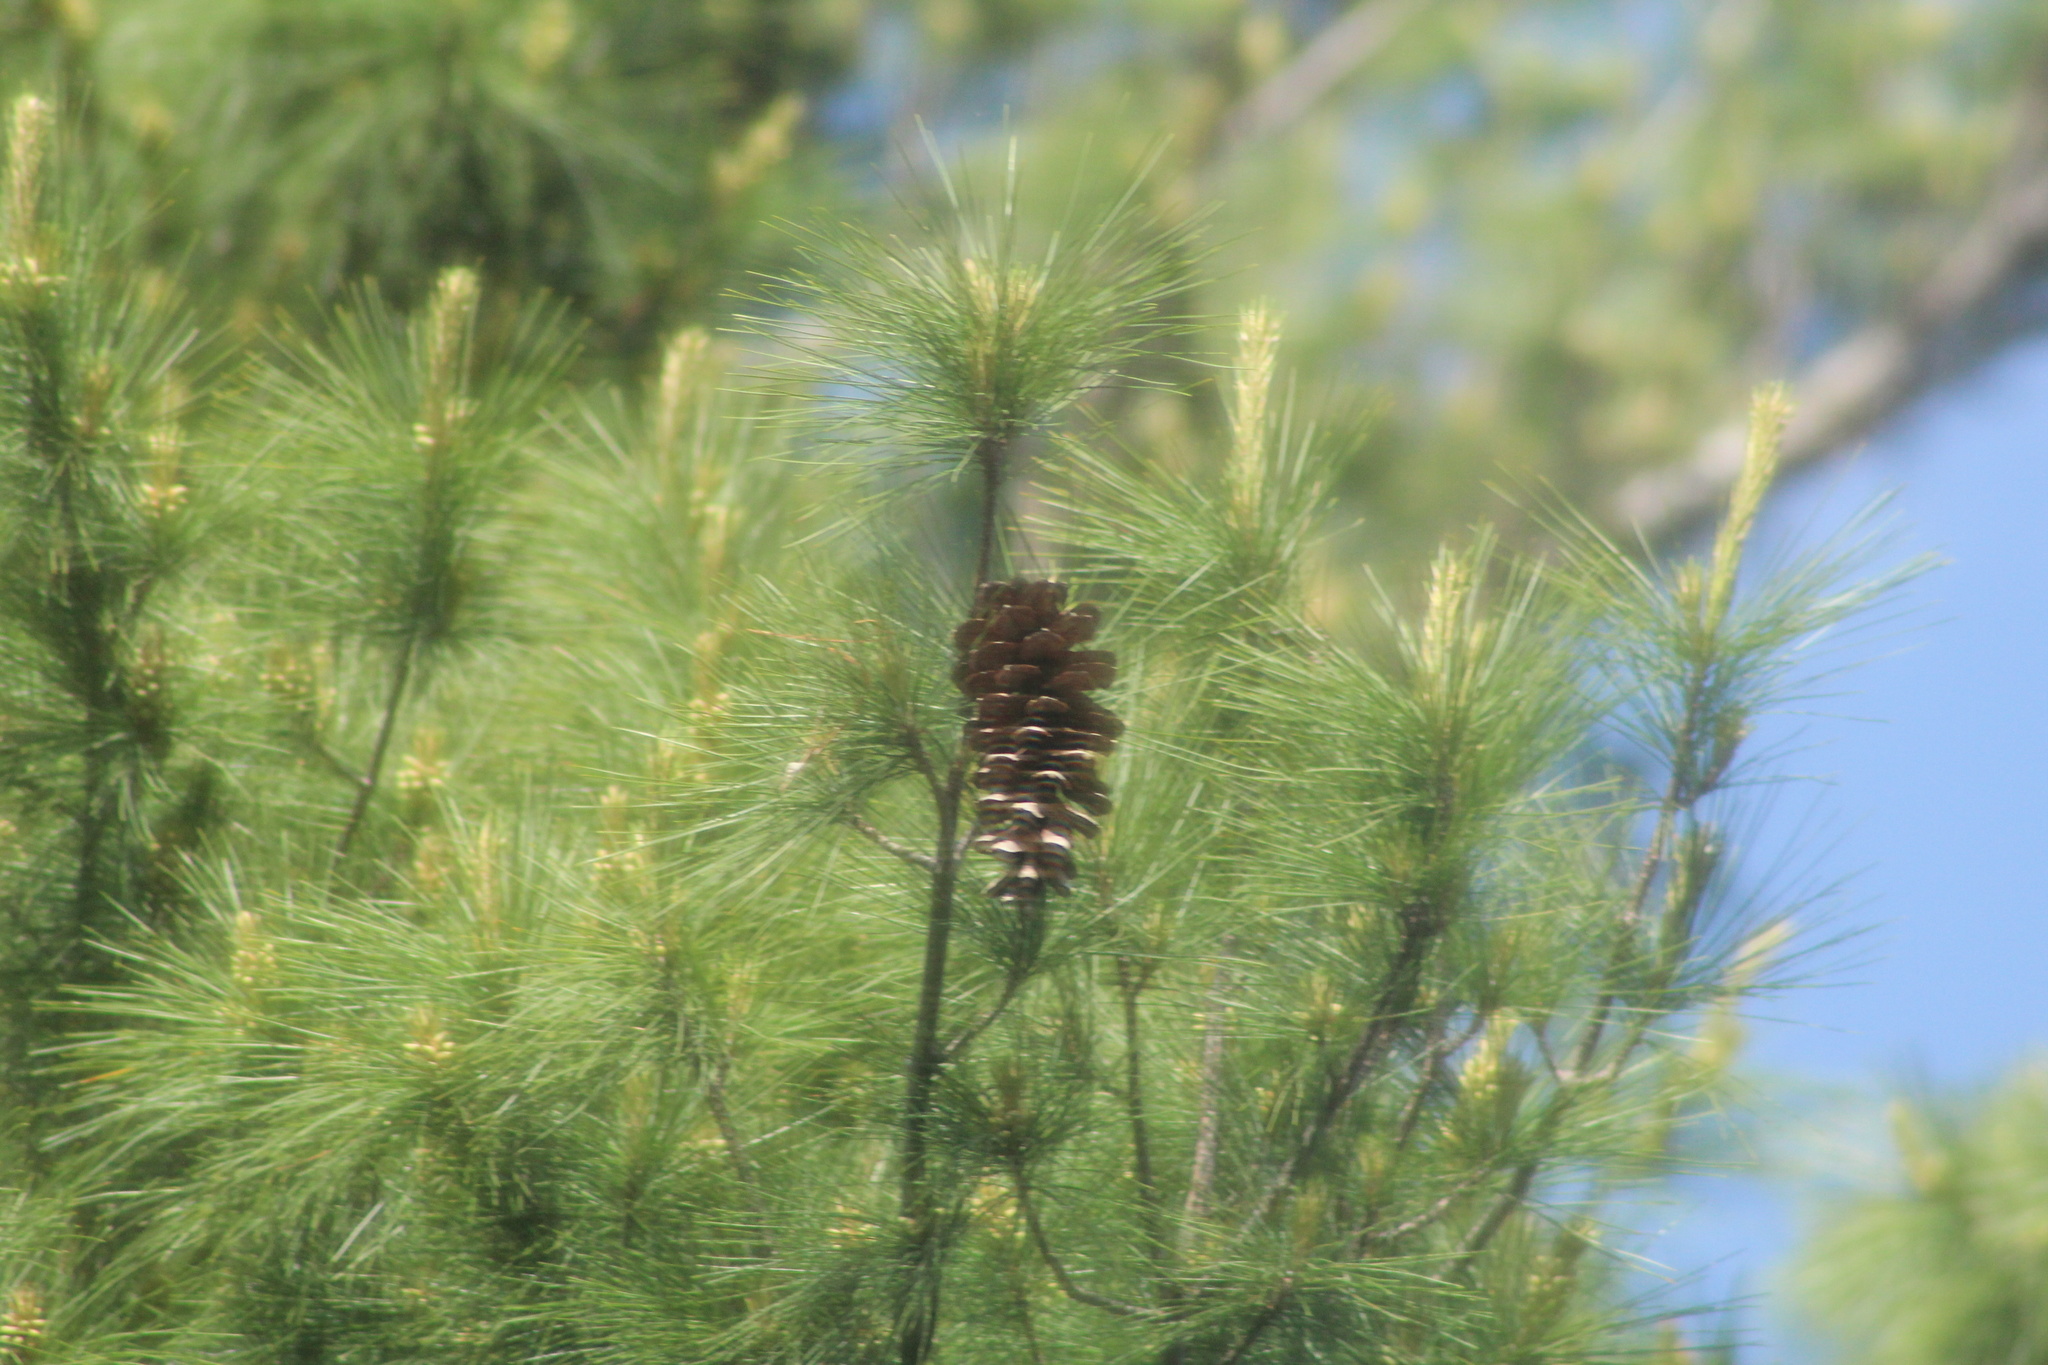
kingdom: Plantae
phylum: Tracheophyta
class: Pinopsida
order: Pinales
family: Pinaceae
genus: Pinus
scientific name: Pinus strobus
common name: Weymouth pine
